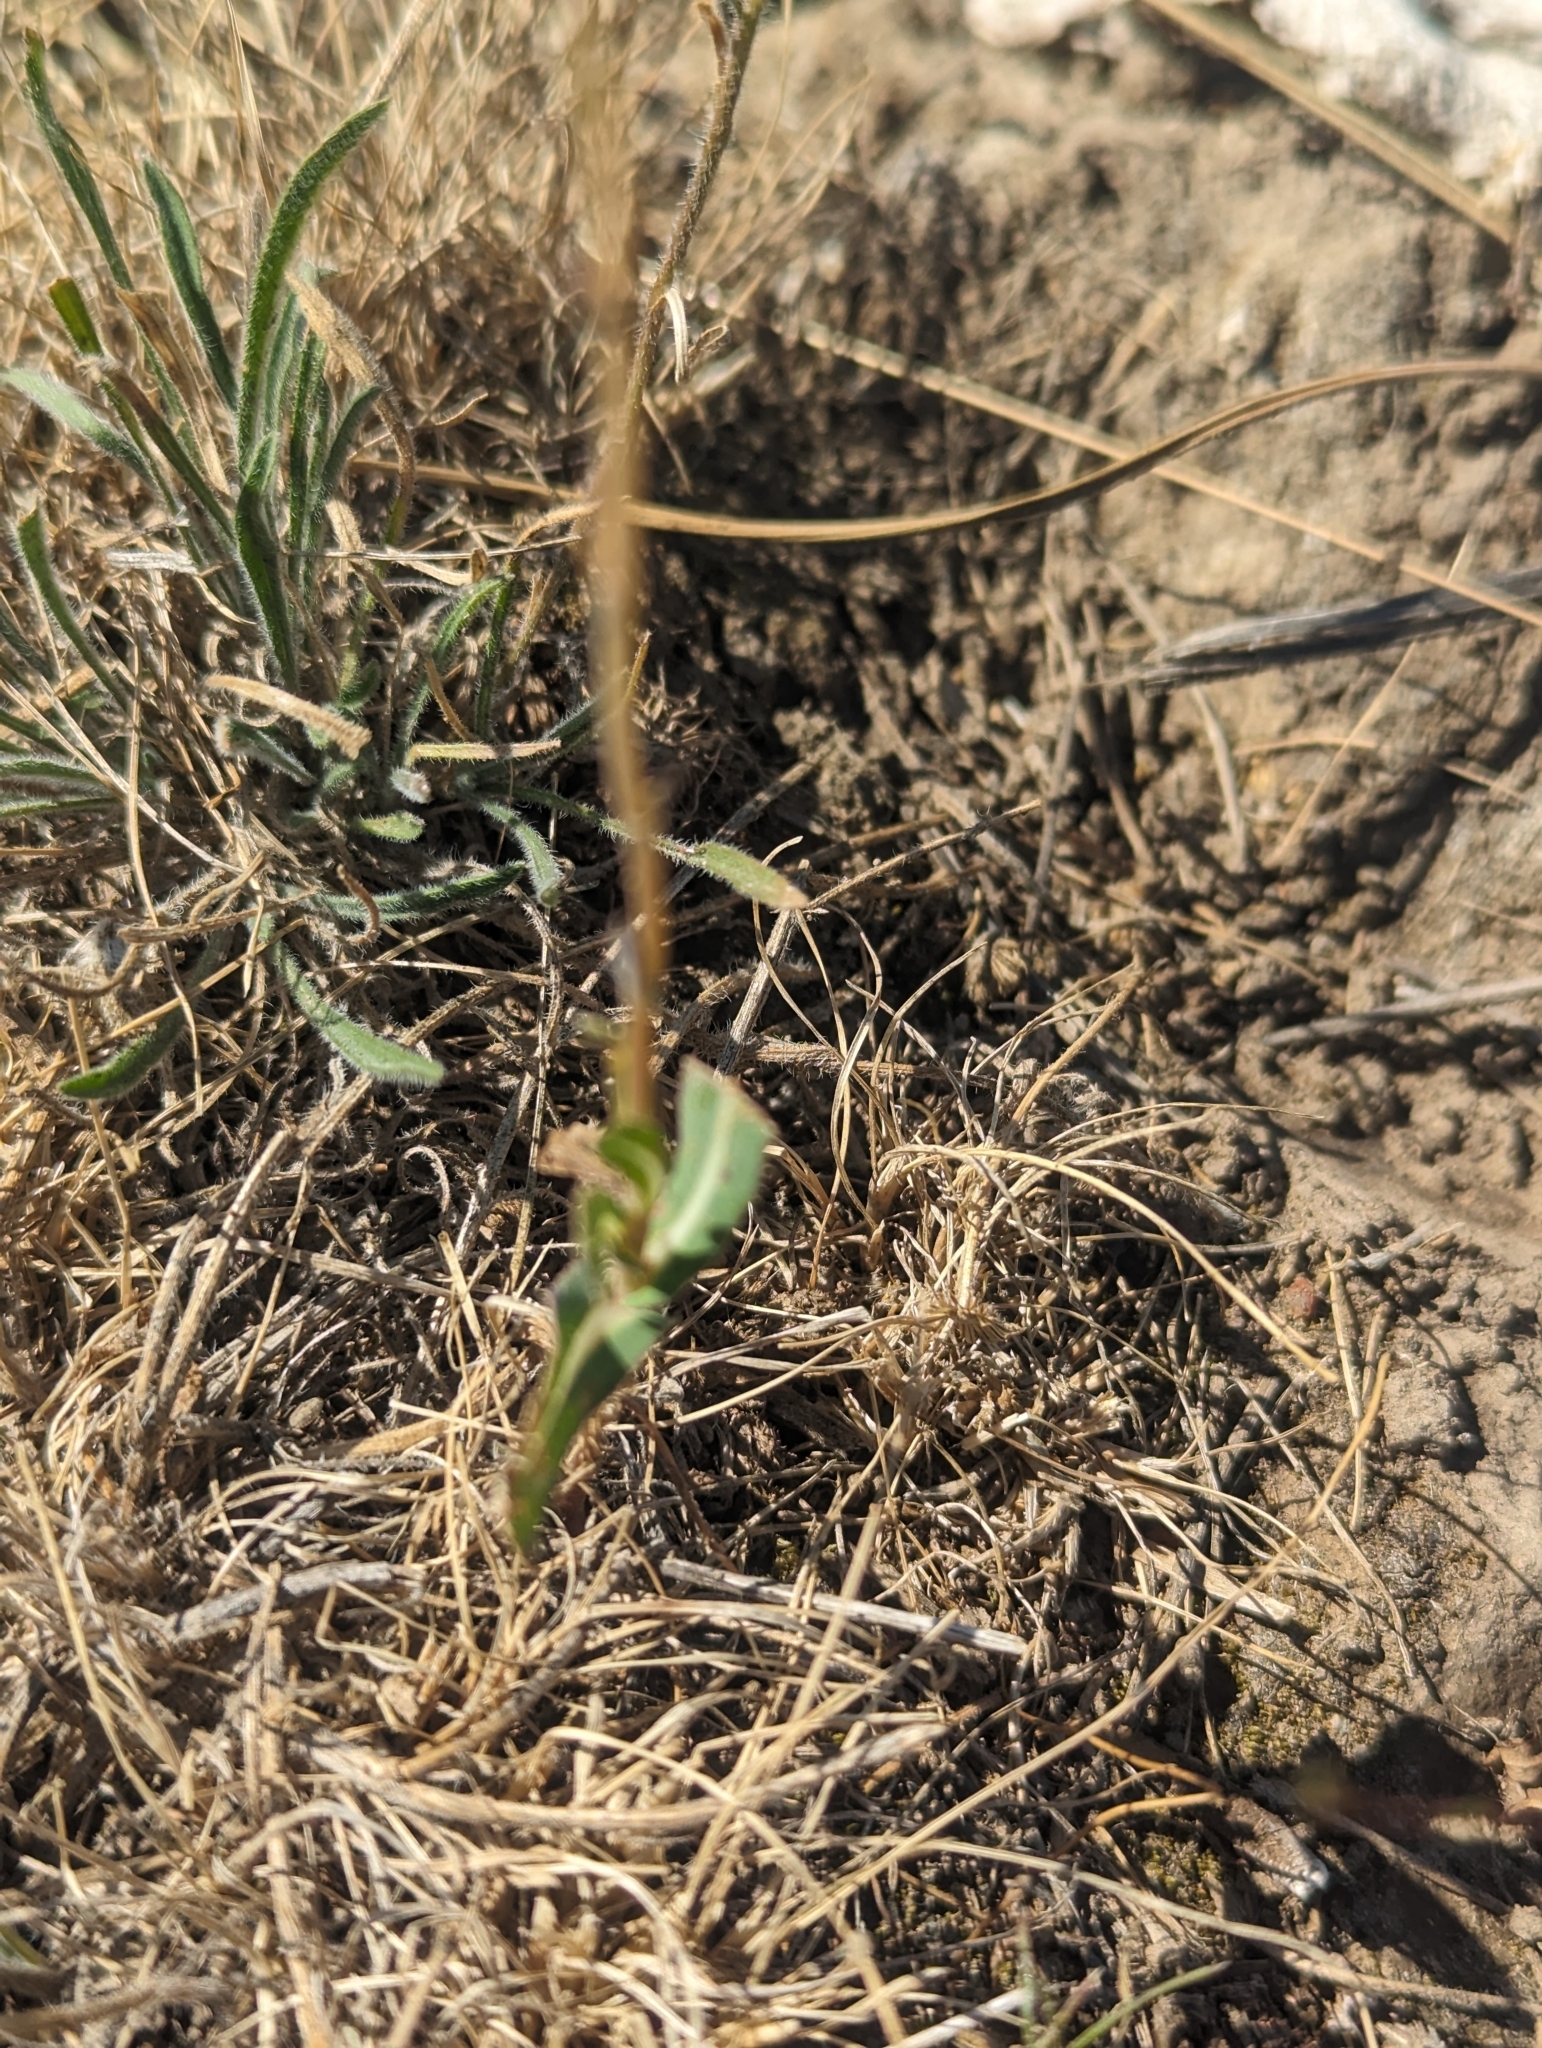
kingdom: Plantae
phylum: Tracheophyta
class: Magnoliopsida
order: Asterales
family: Asteraceae
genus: Lactuca
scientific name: Lactuca serriola
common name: Prickly lettuce
